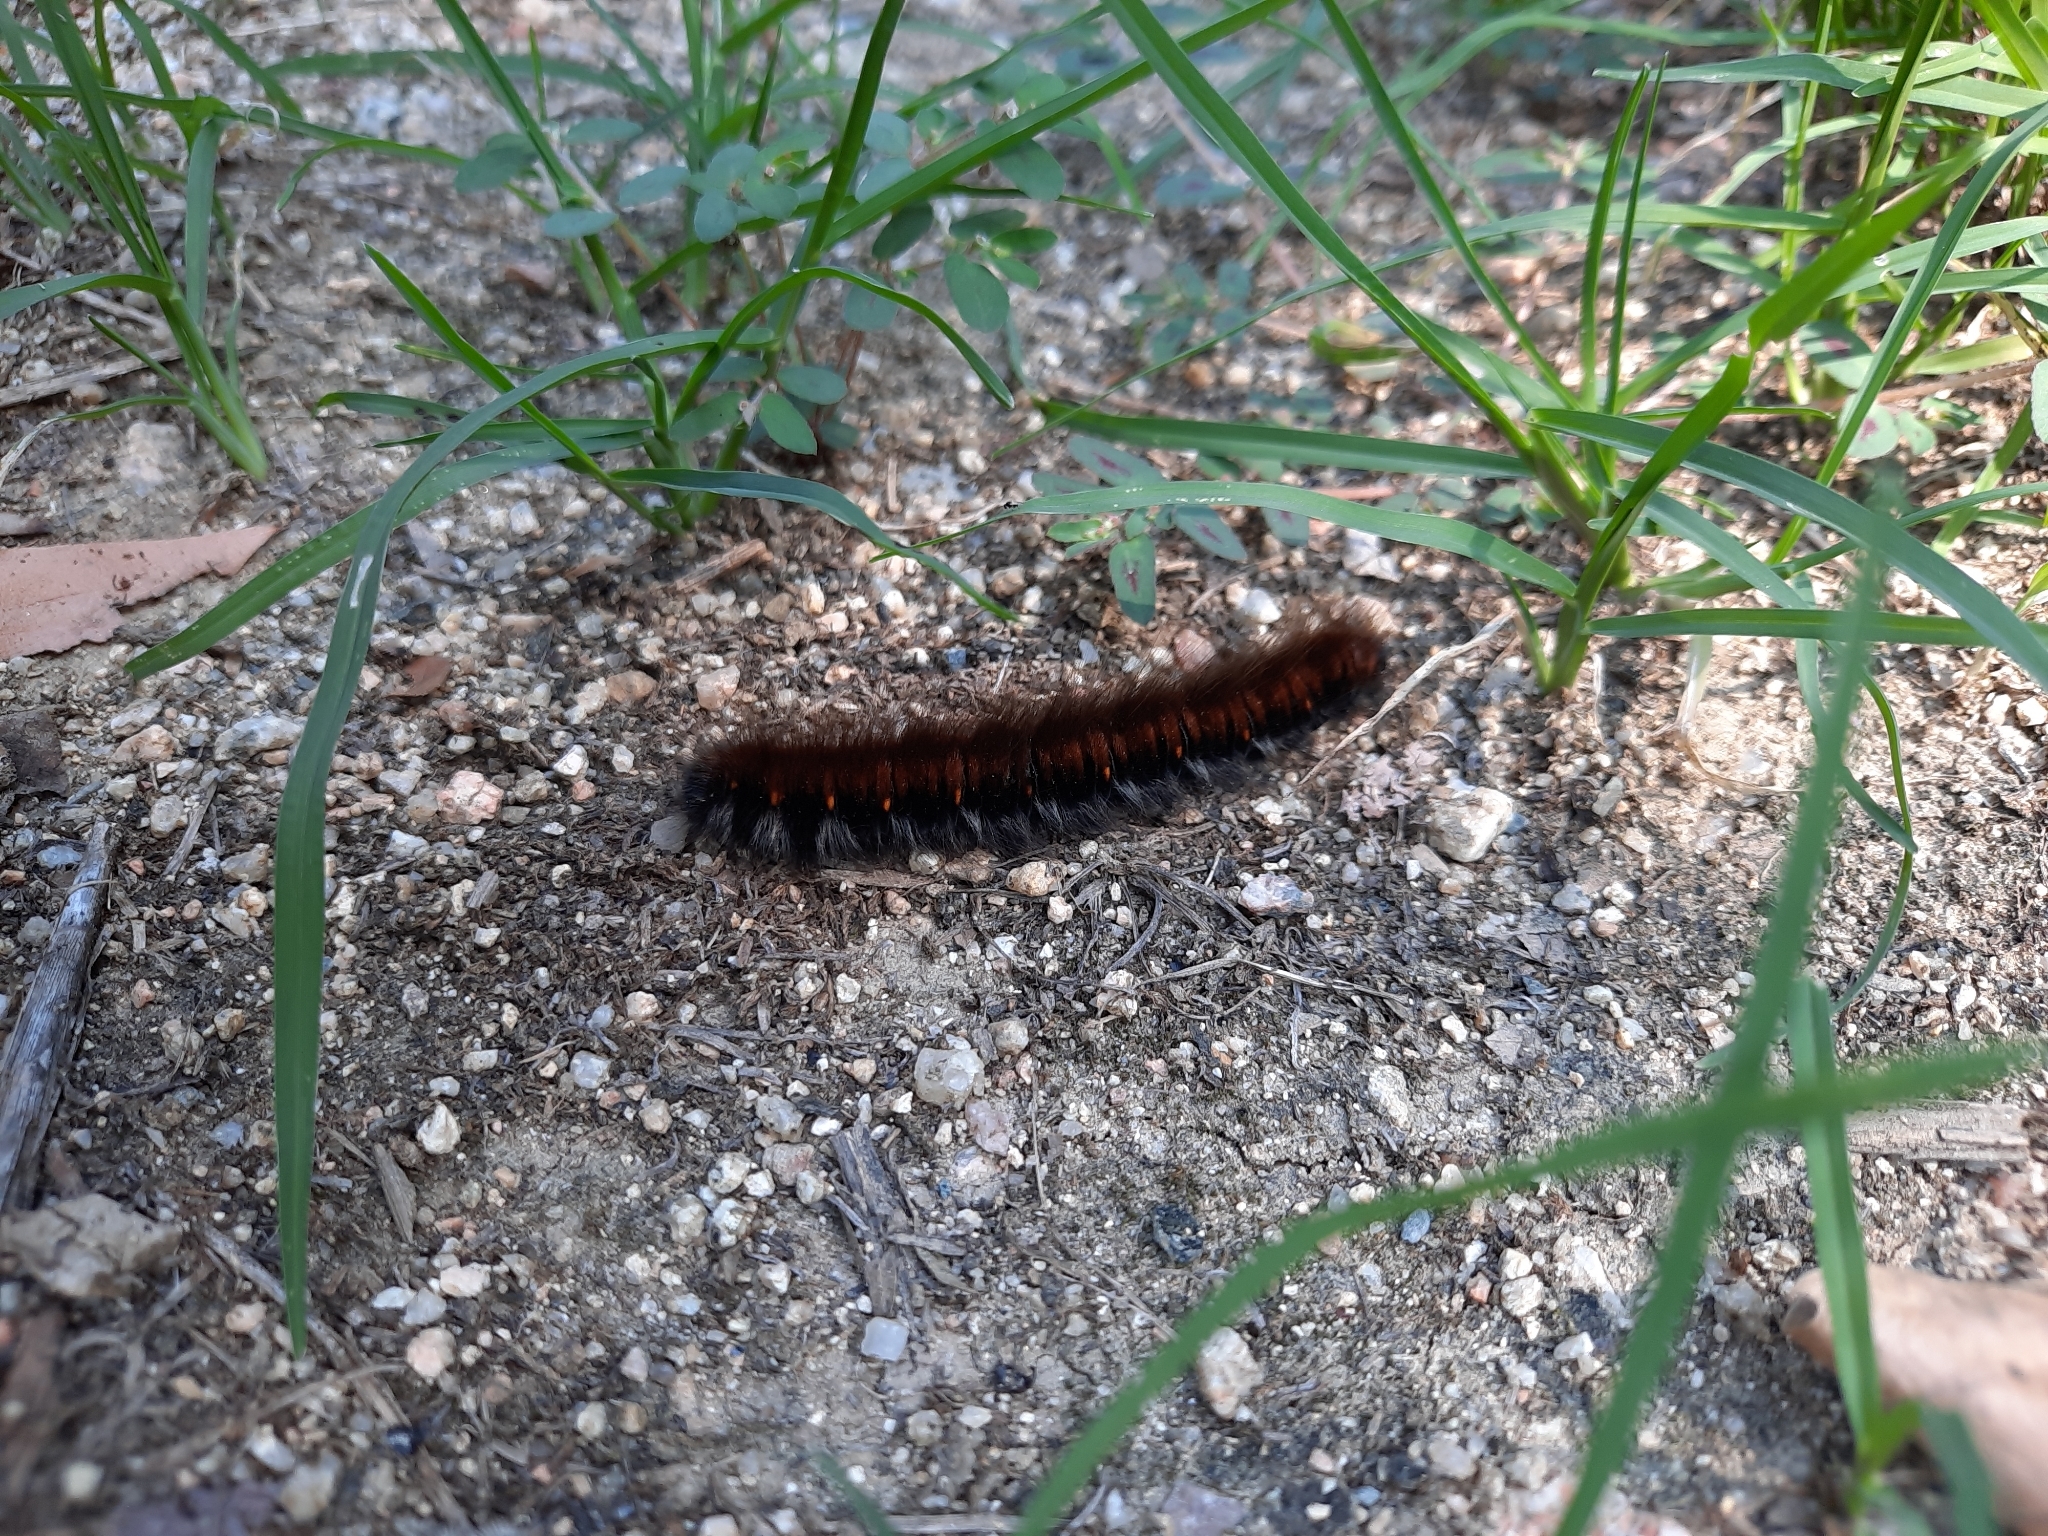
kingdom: Animalia
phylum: Arthropoda
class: Insecta
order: Lepidoptera
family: Lasiocampidae
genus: Macrothylacia
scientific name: Macrothylacia rubi
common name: Fox moth
